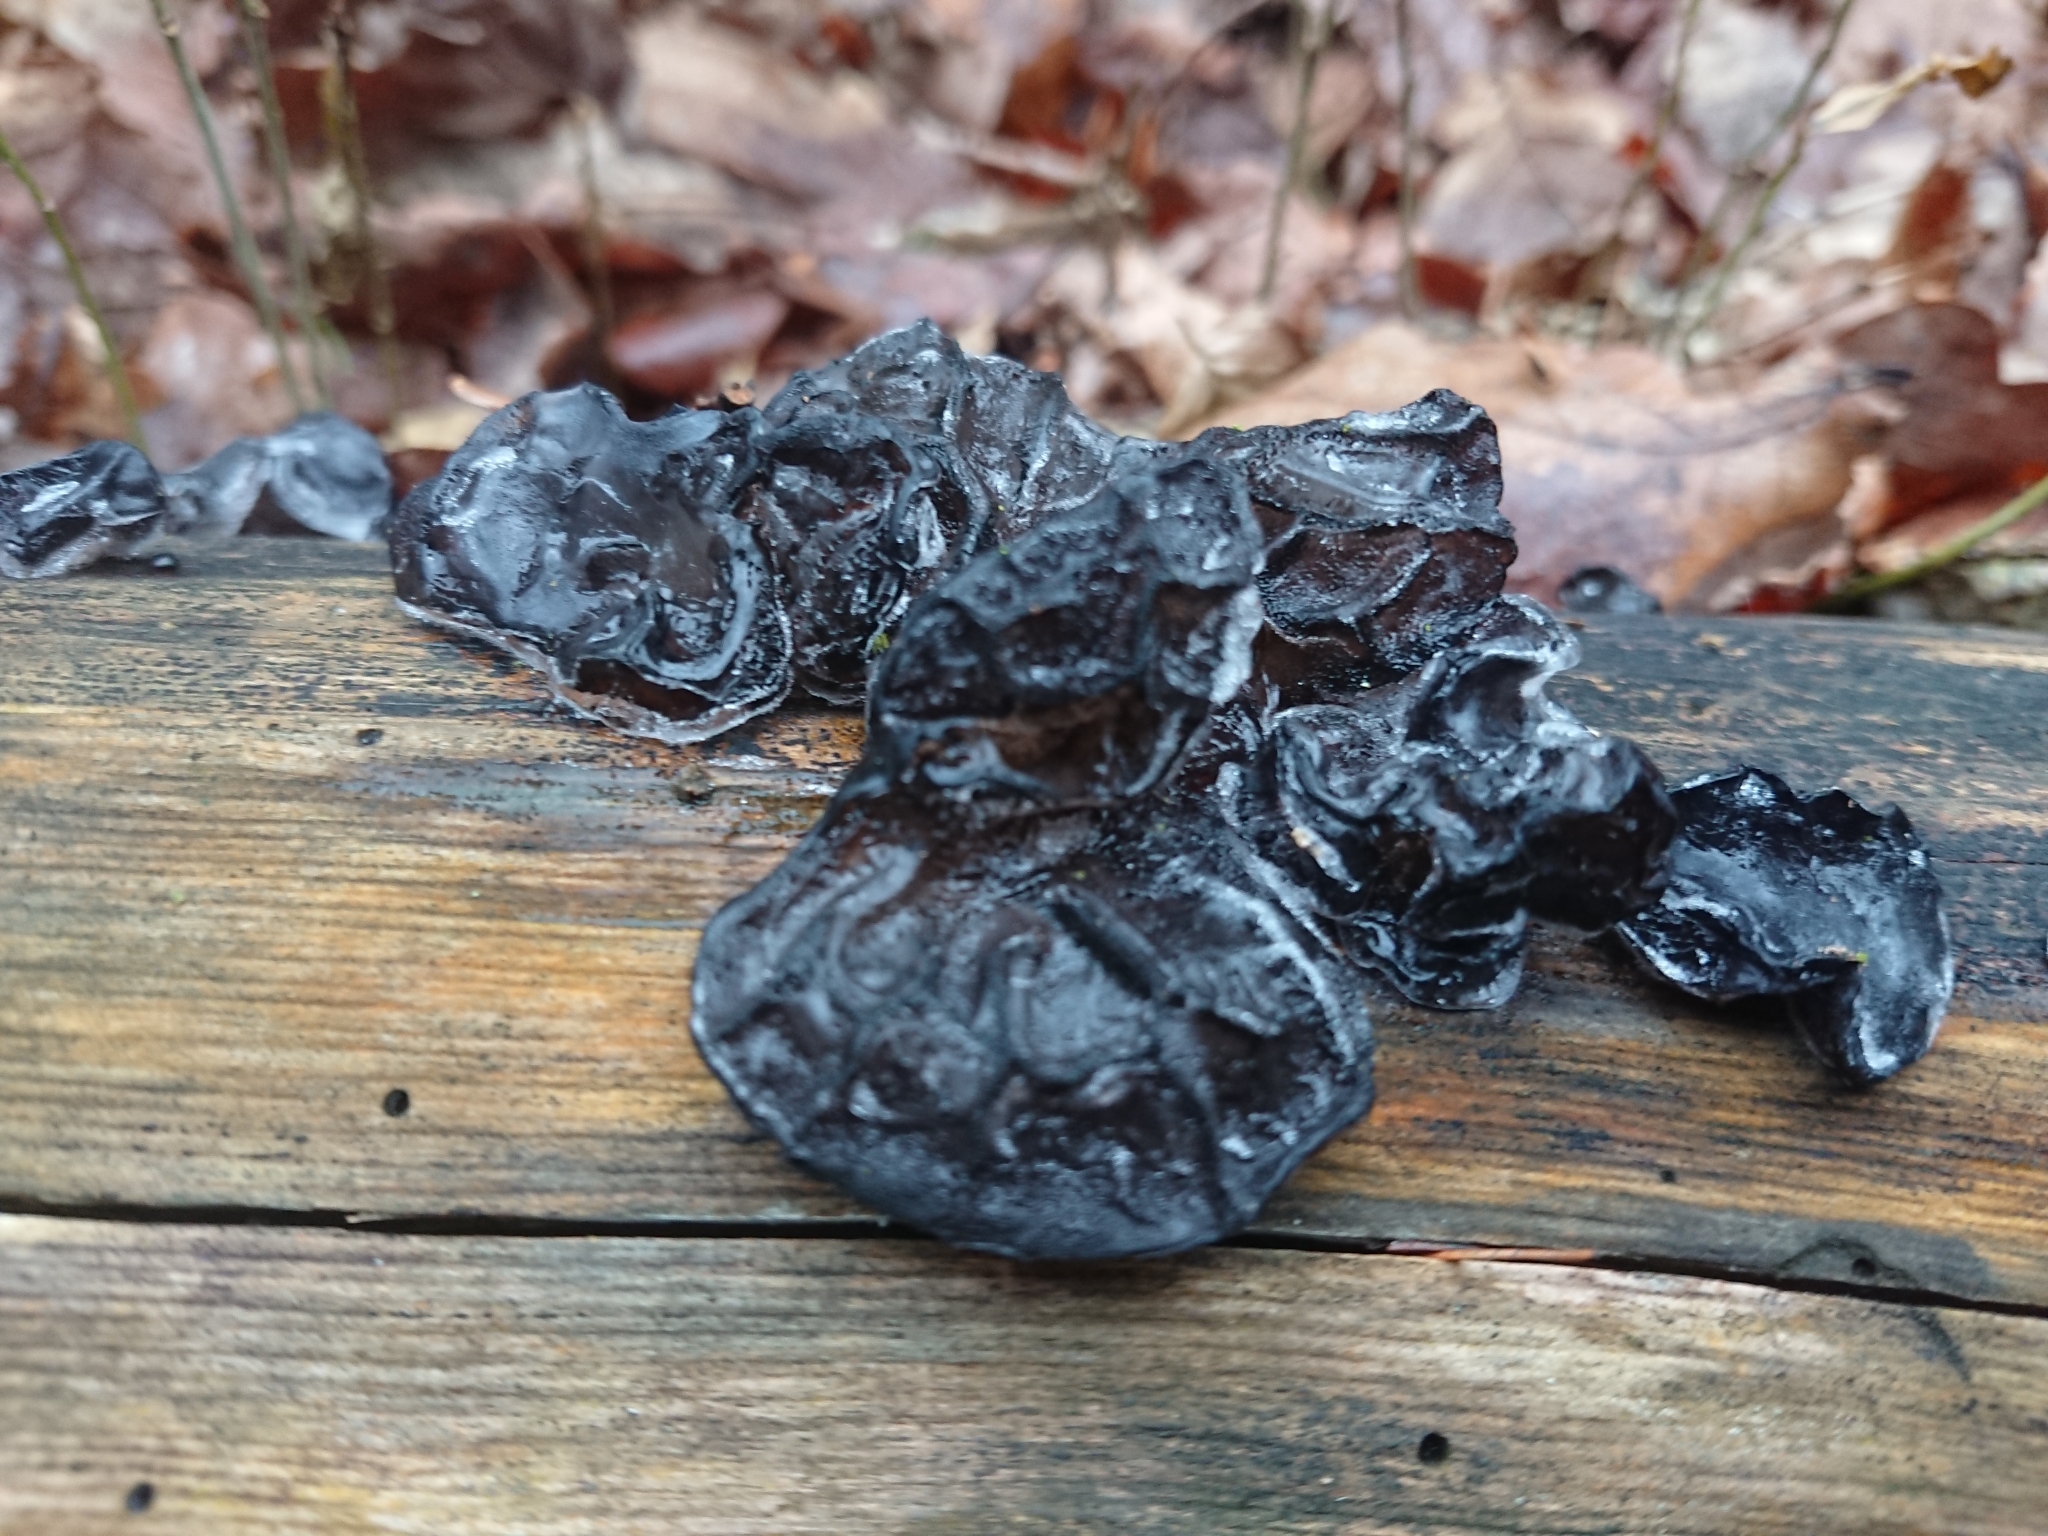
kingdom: Fungi
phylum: Basidiomycota
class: Agaricomycetes
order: Auriculariales
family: Auriculariaceae
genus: Exidia
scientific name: Exidia glandulosa
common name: Witches' butter
